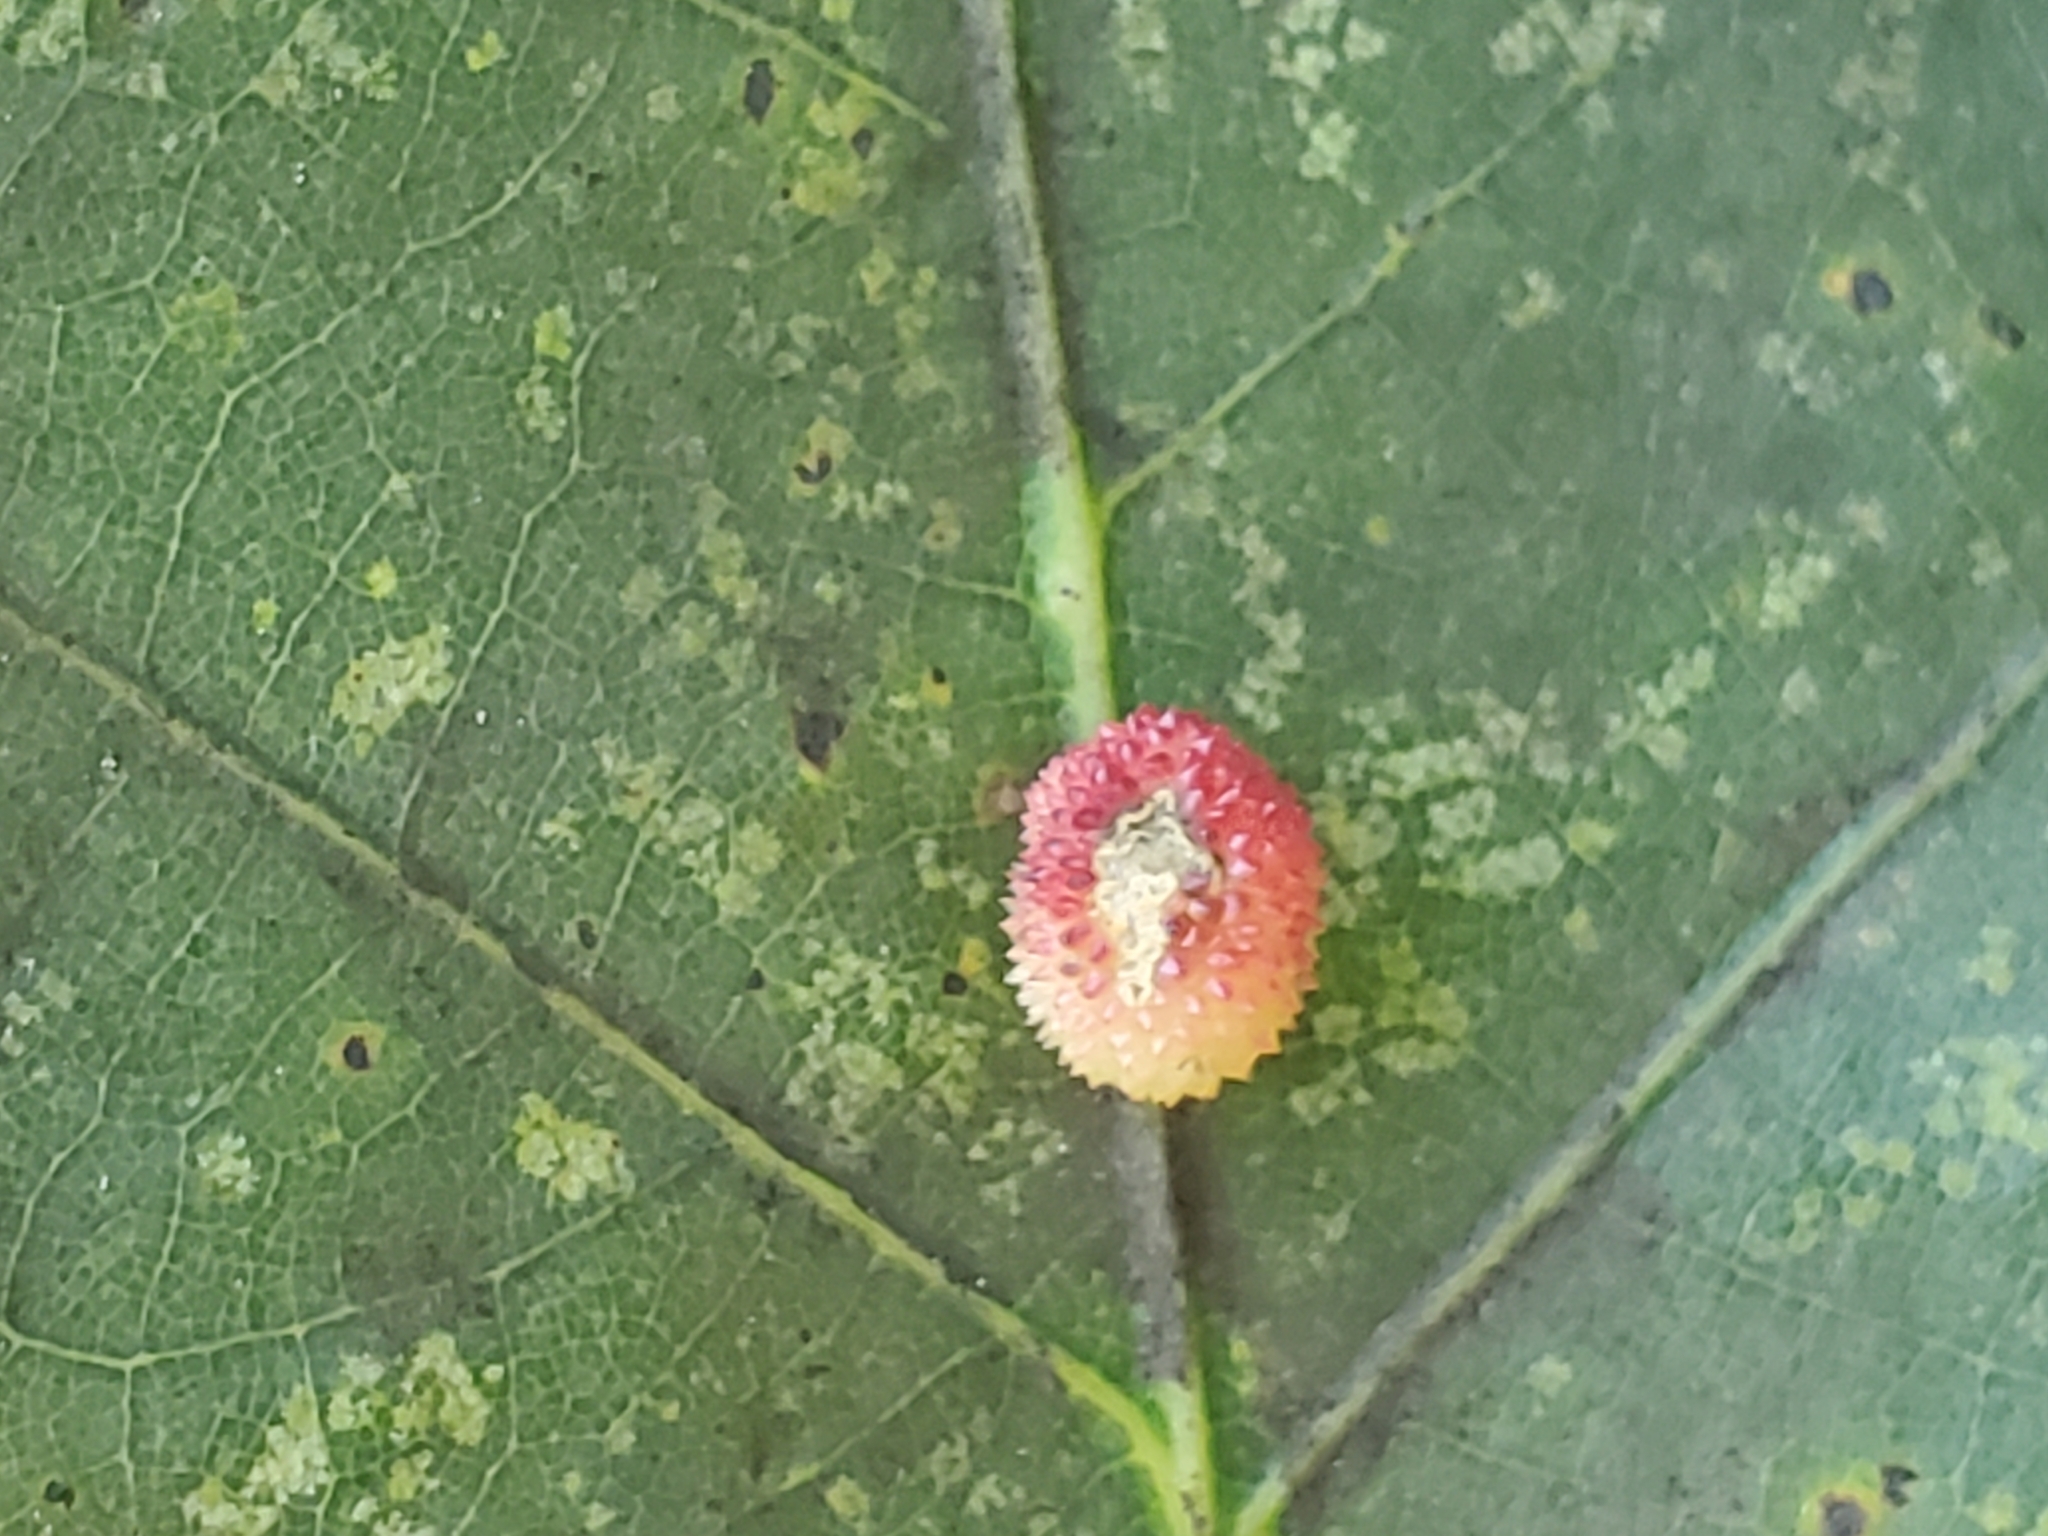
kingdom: Animalia
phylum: Arthropoda
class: Insecta
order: Hymenoptera
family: Cynipidae
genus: Acraspis
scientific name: Acraspis
